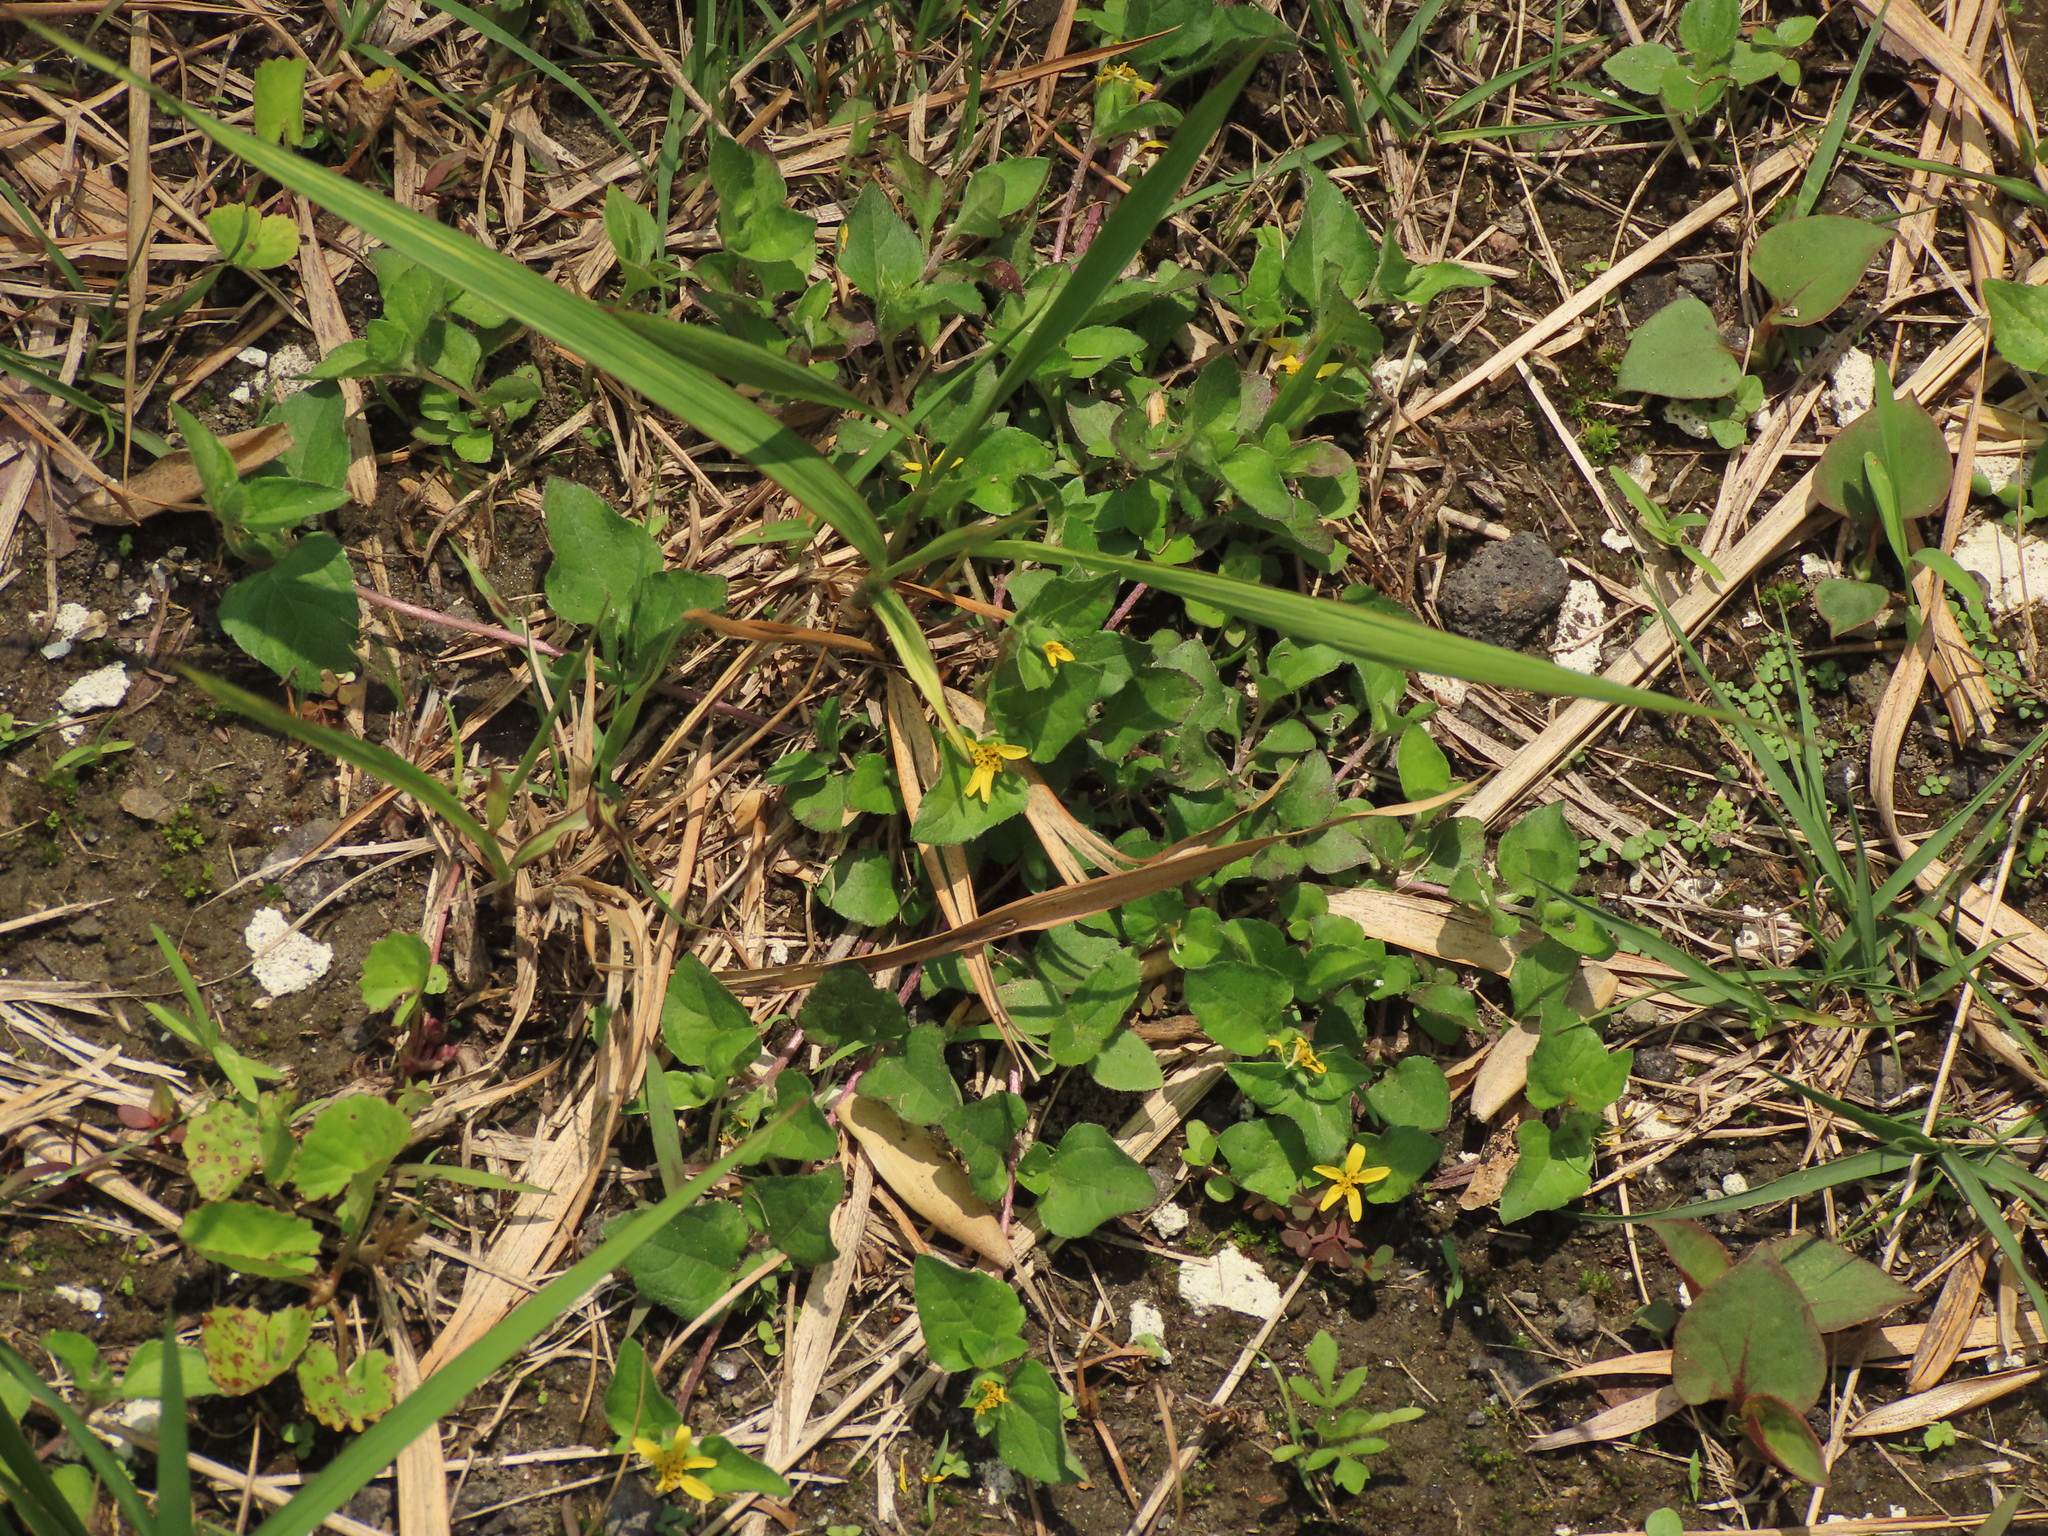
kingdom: Plantae
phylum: Tracheophyta
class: Magnoliopsida
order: Asterales
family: Asteraceae
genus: Calyptocarpus
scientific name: Calyptocarpus vialis
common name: Straggler daisy
